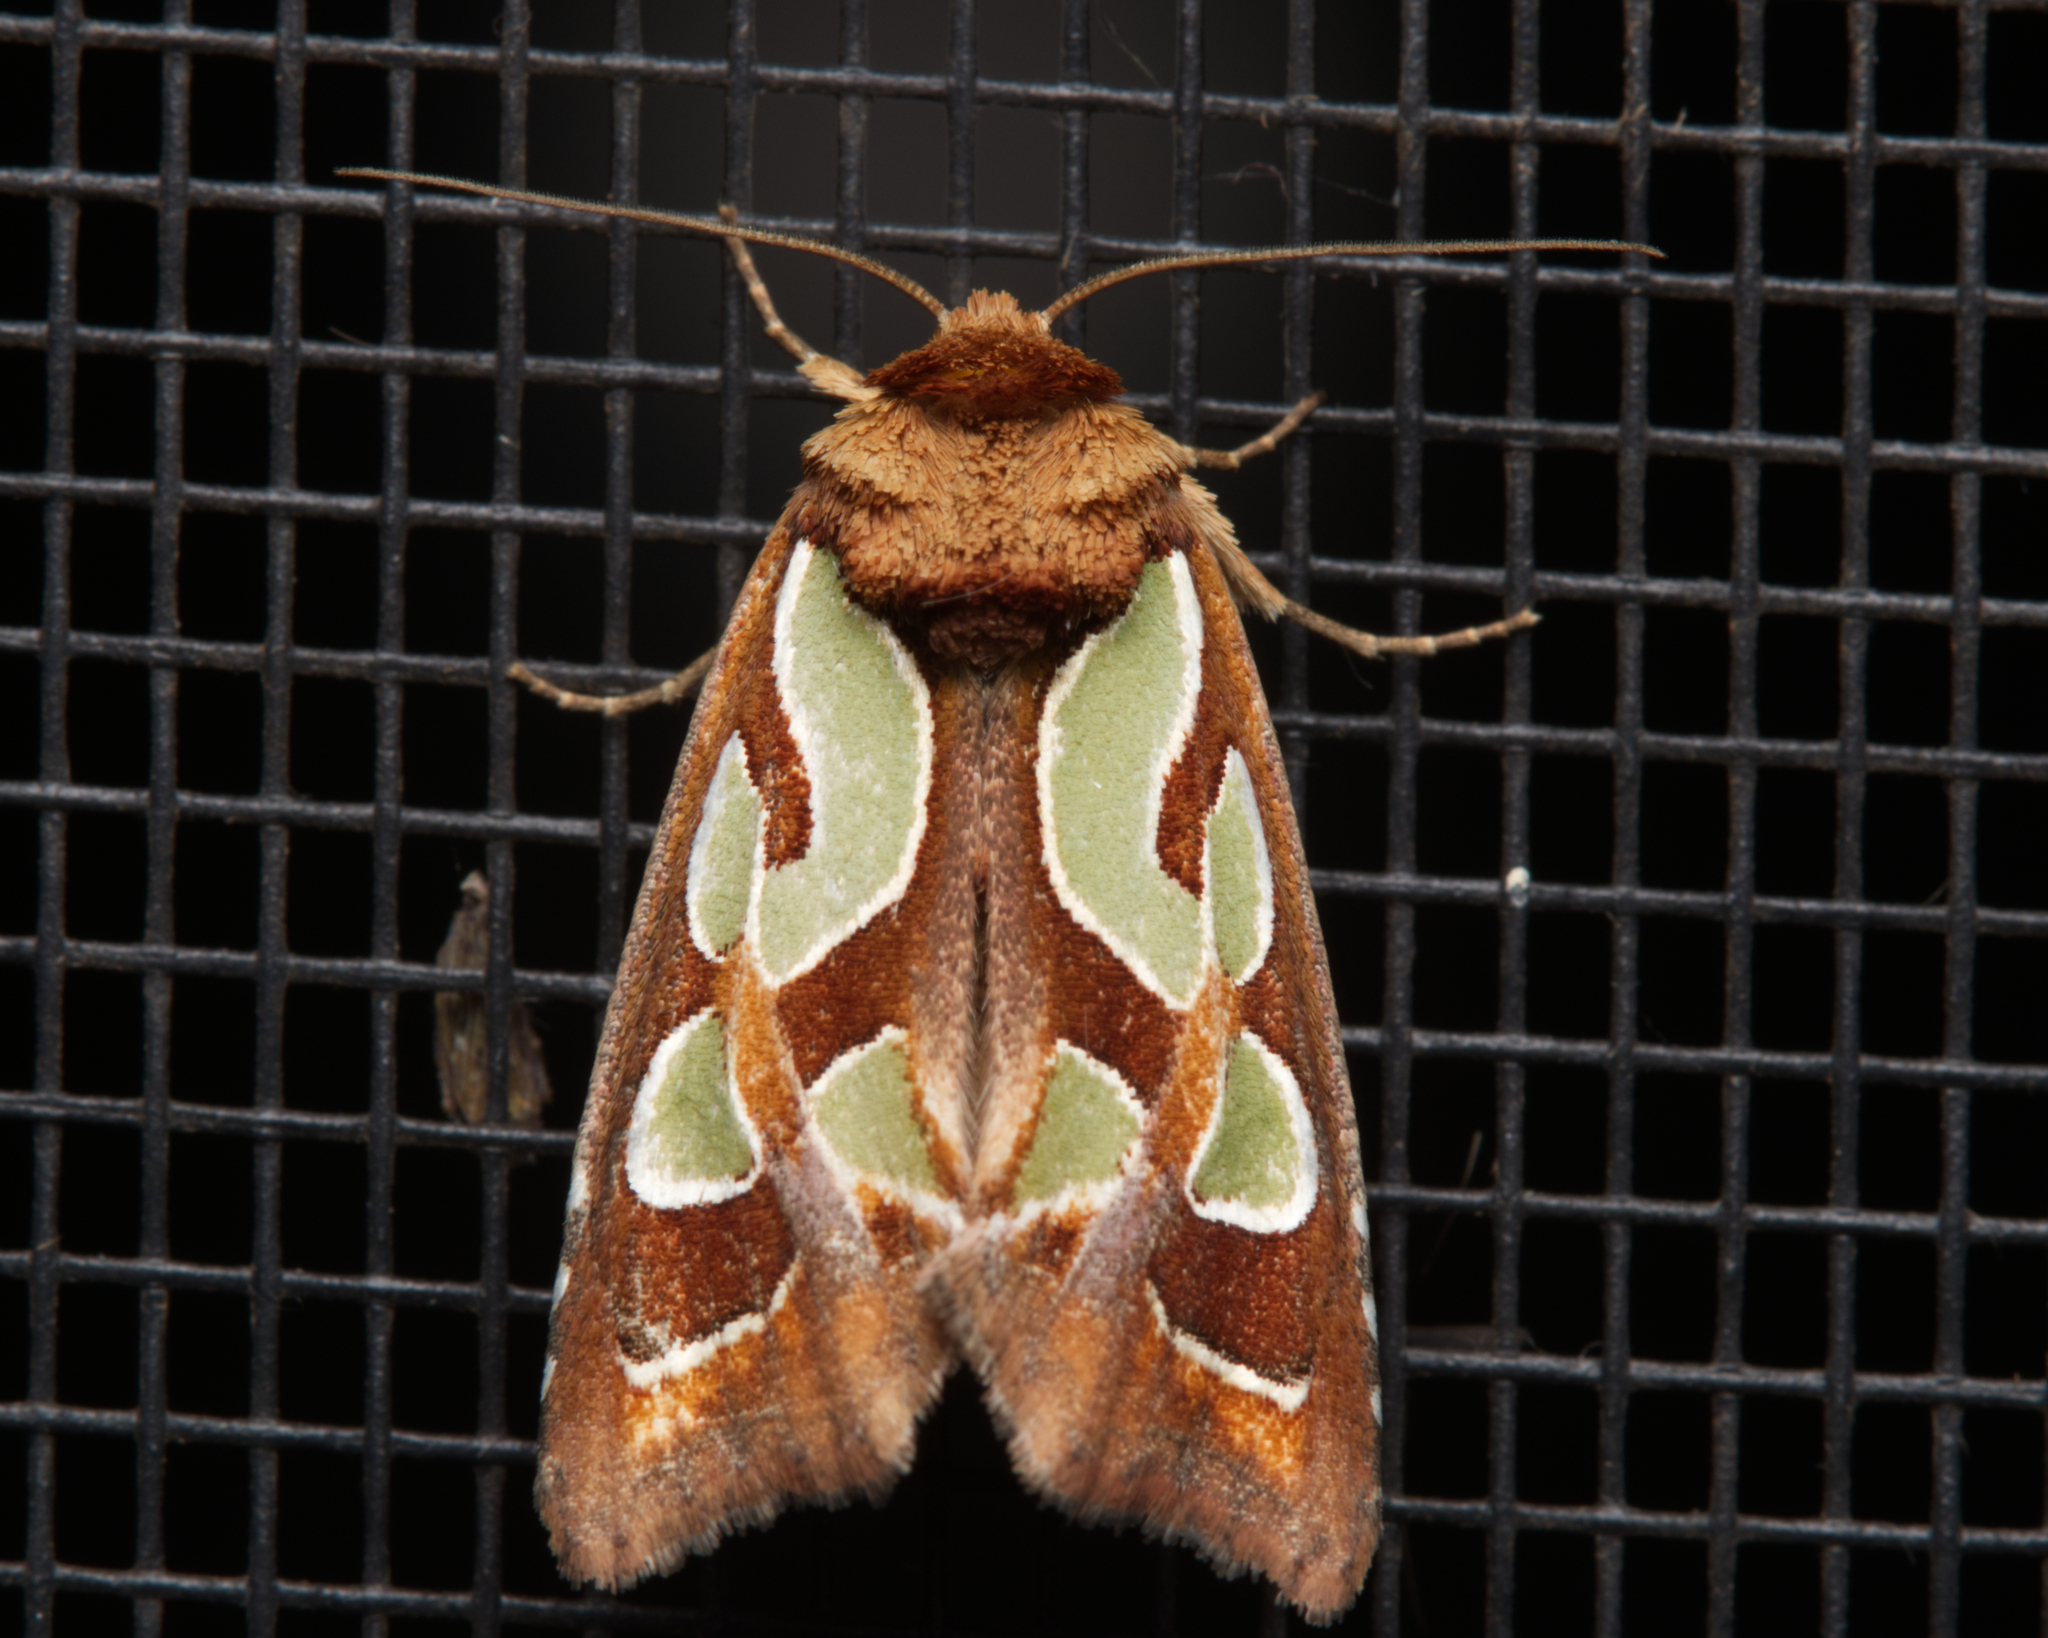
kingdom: Animalia
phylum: Arthropoda
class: Insecta
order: Lepidoptera
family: Noctuidae
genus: Cosmodes
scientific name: Cosmodes elegans
